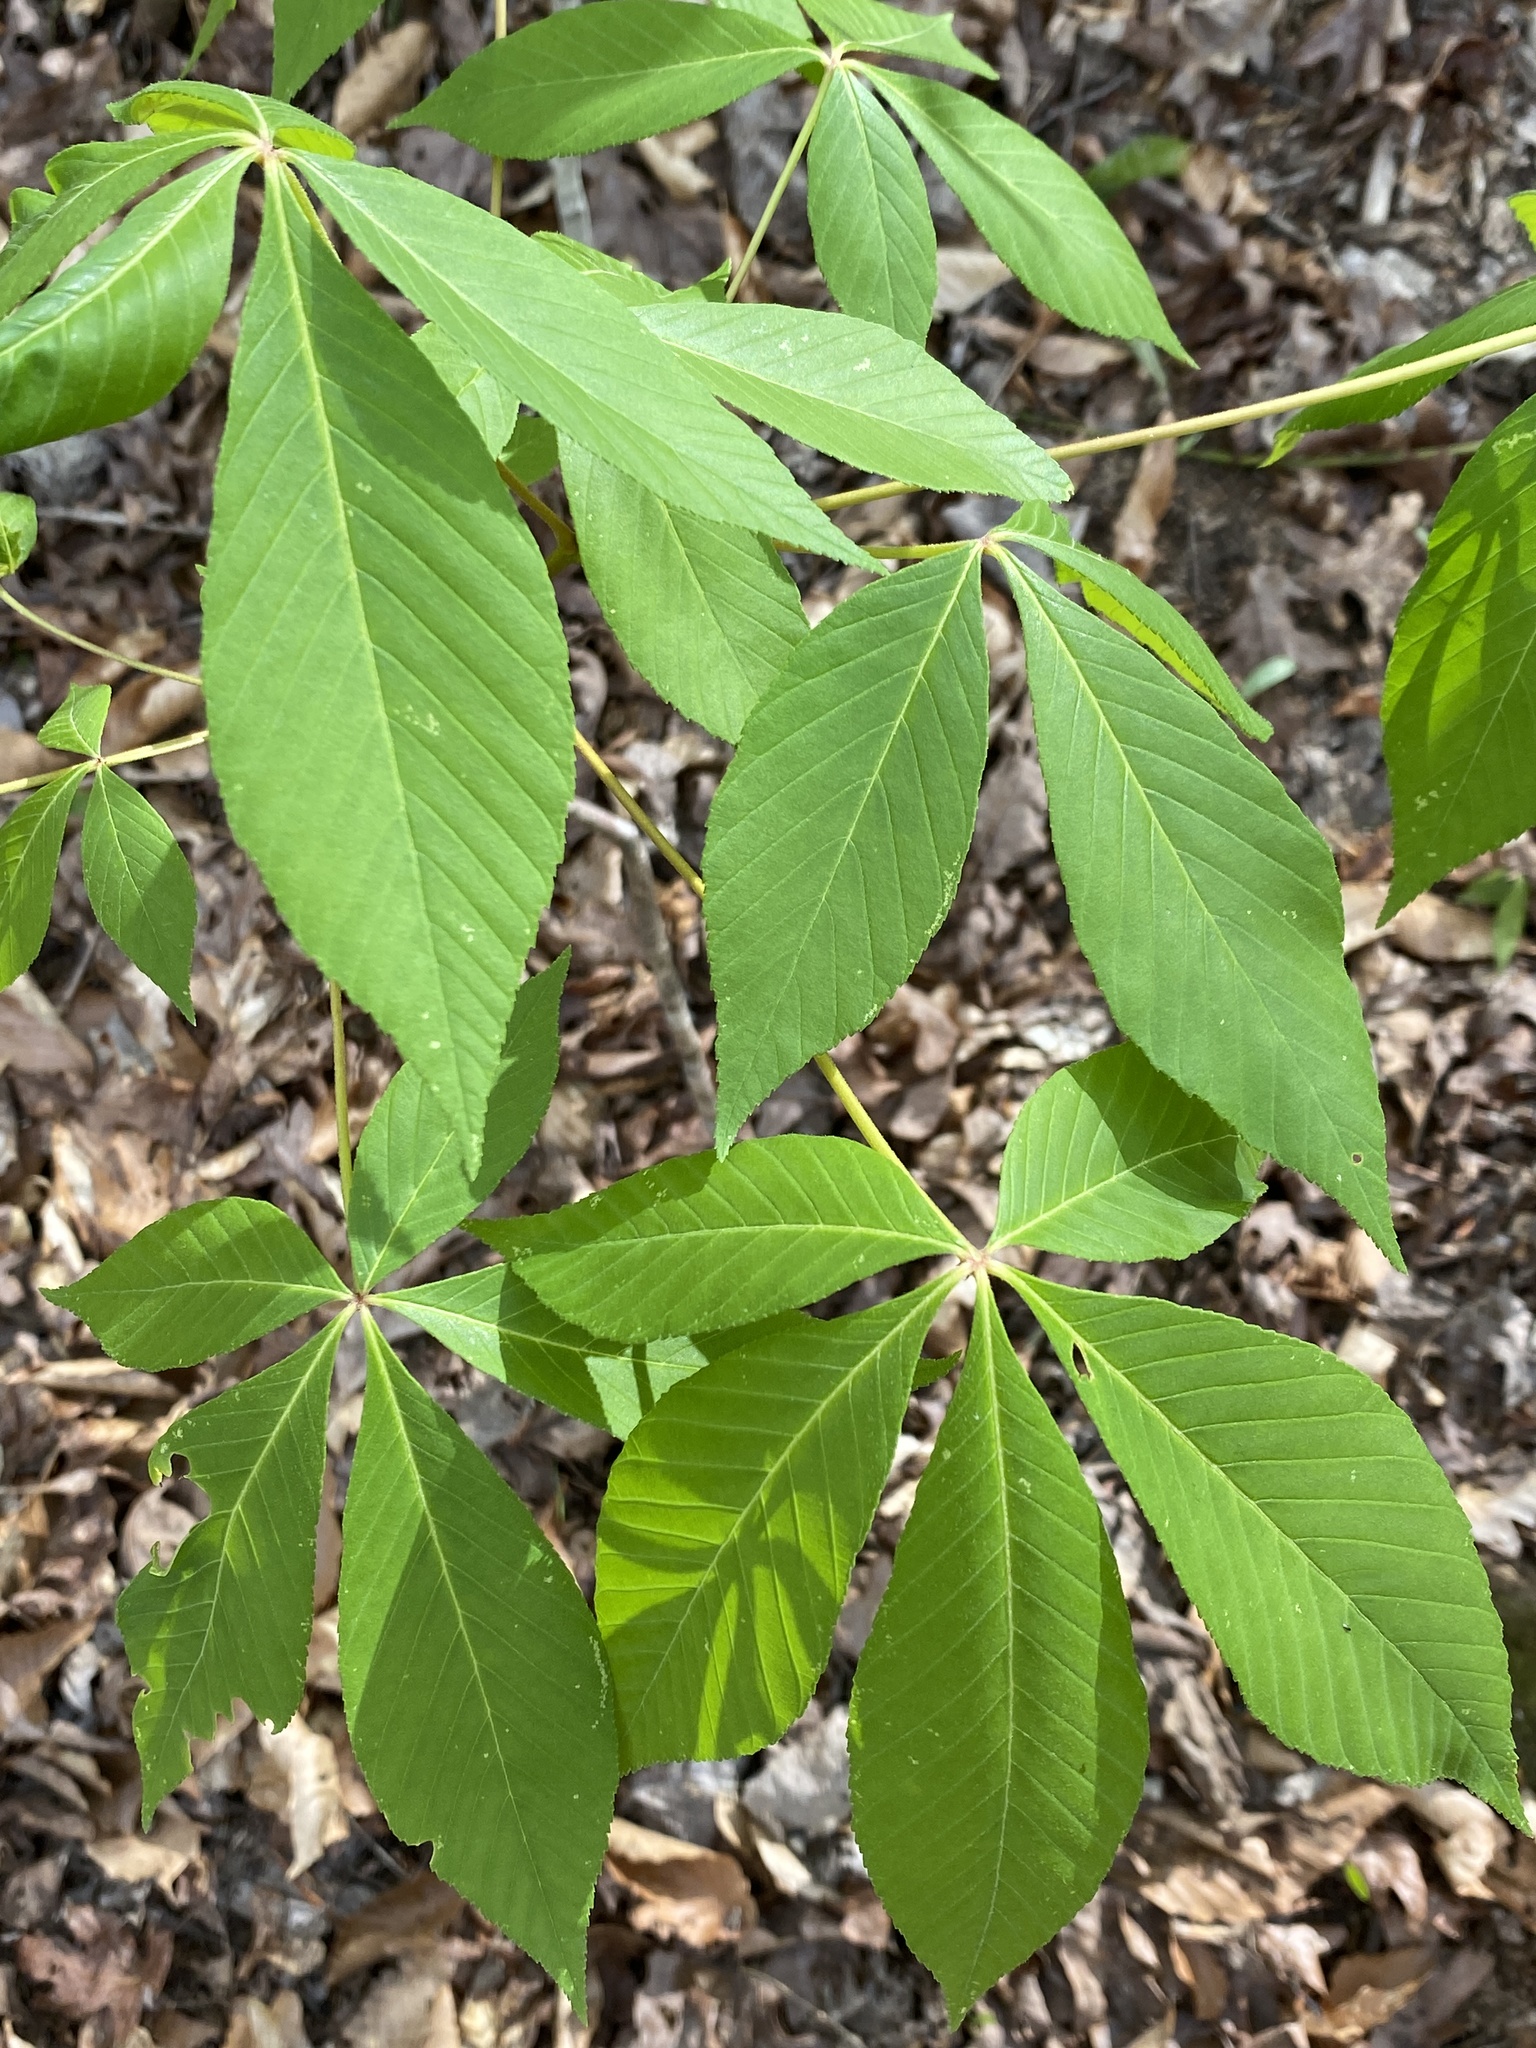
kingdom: Plantae
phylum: Tracheophyta
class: Magnoliopsida
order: Sapindales
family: Sapindaceae
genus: Aesculus
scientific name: Aesculus sylvatica
